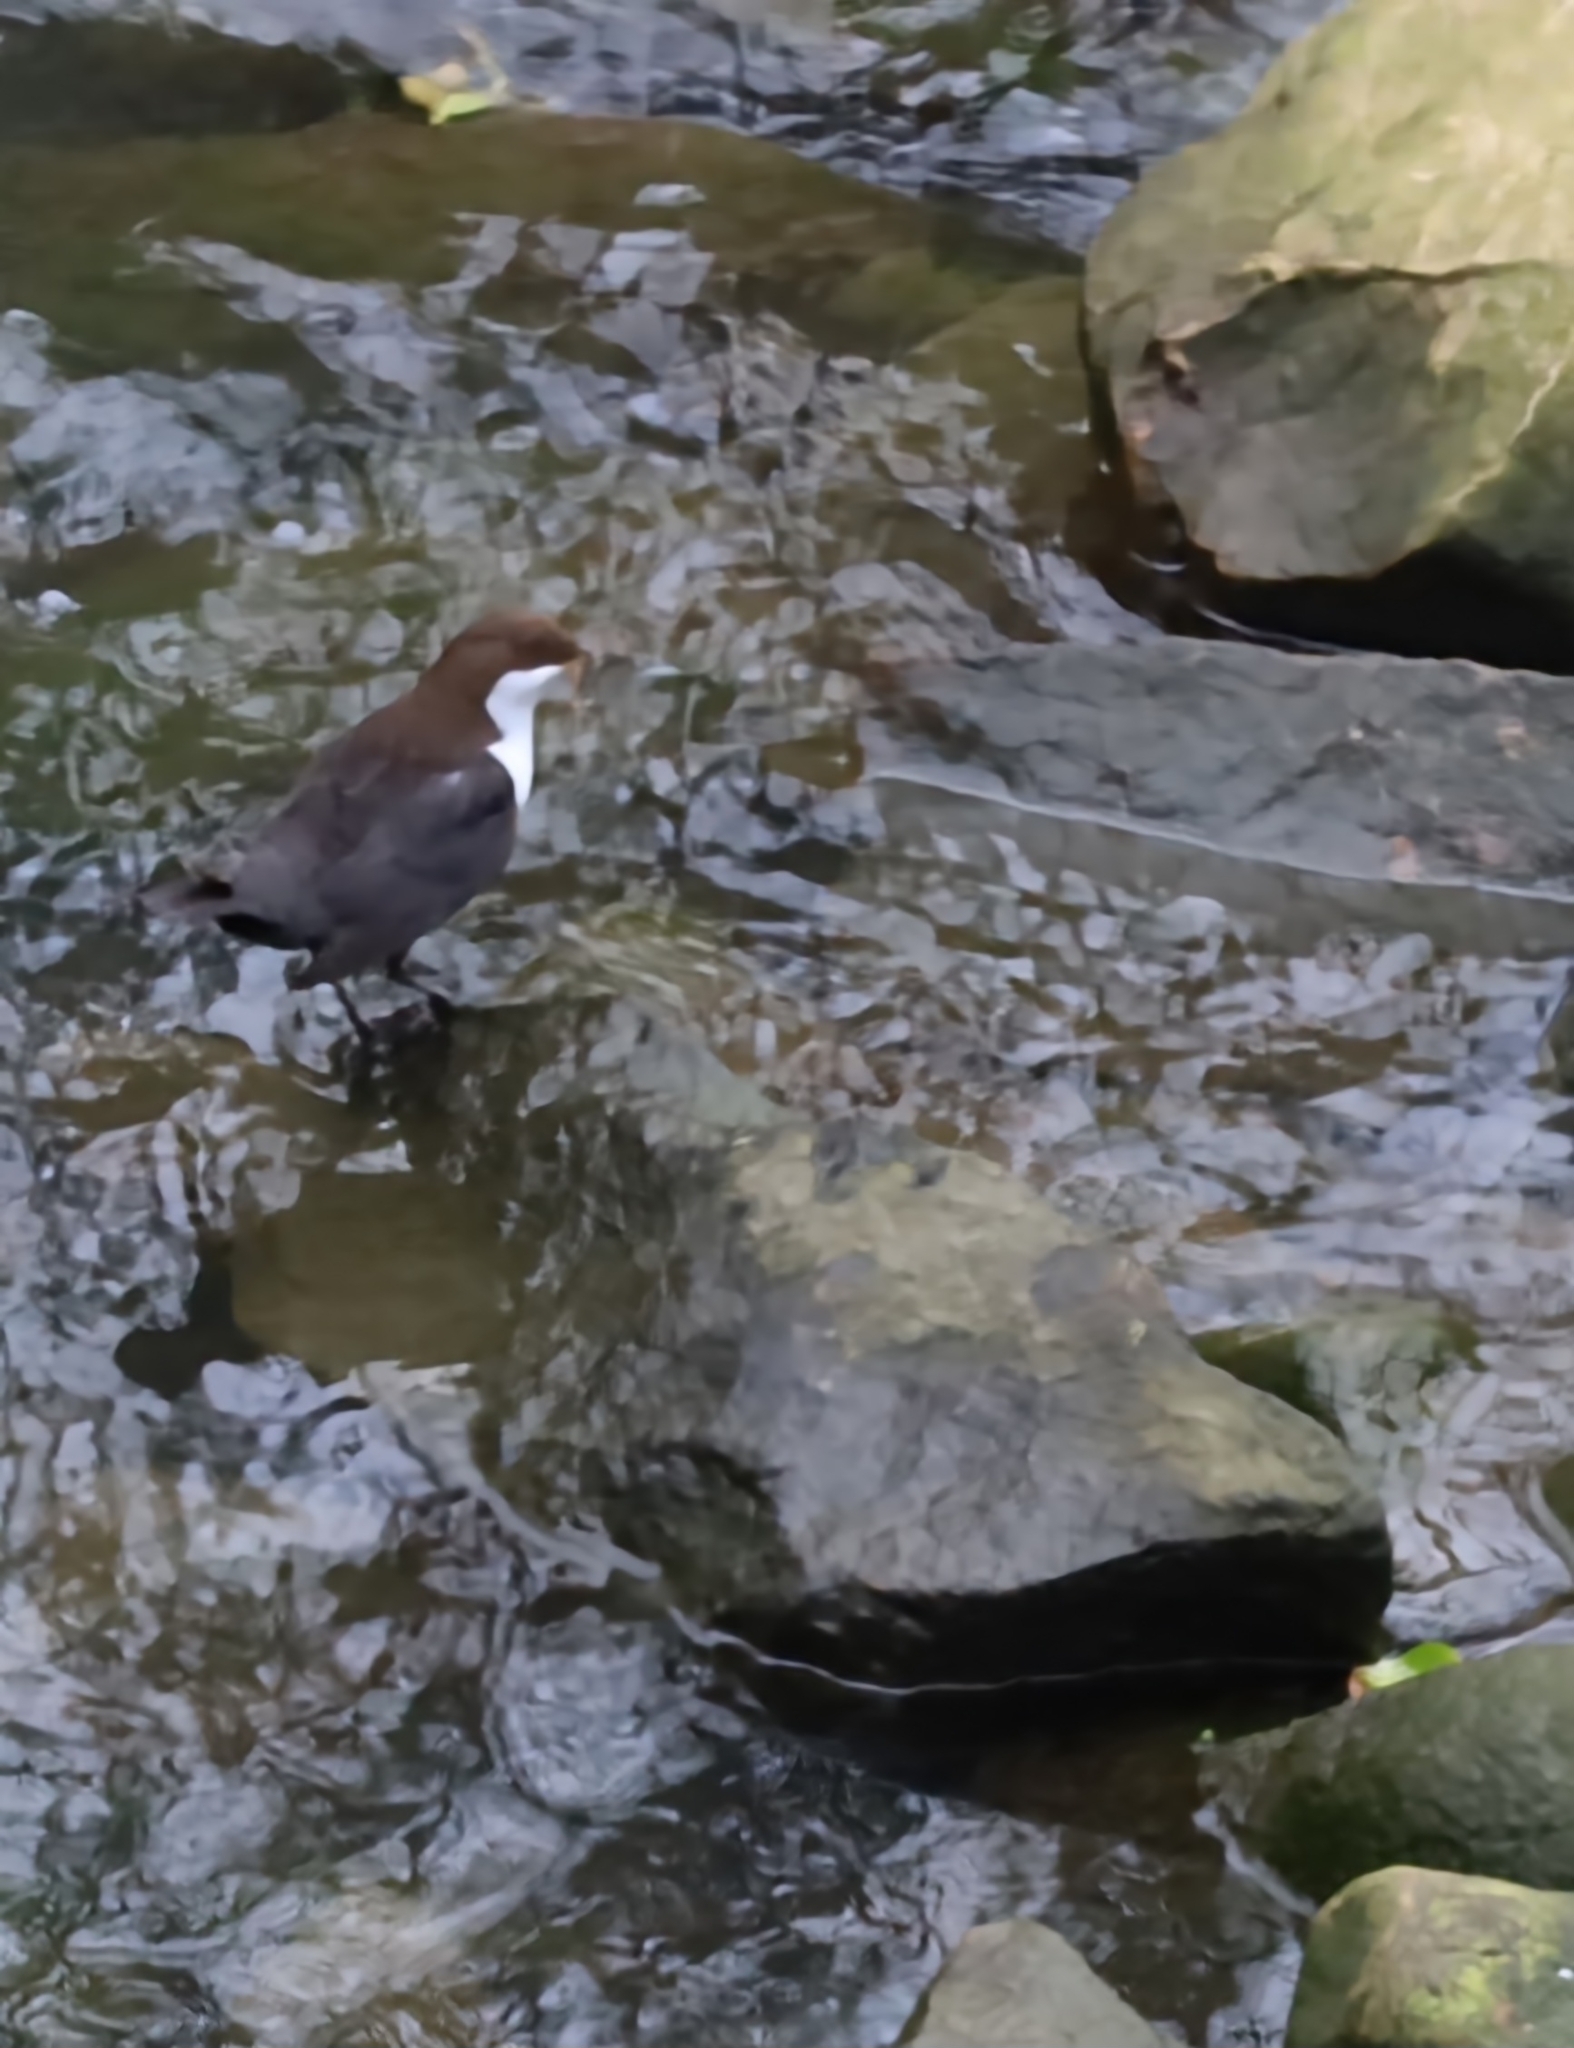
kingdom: Animalia
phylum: Chordata
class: Aves
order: Passeriformes
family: Cinclidae
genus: Cinclus
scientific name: Cinclus cinclus
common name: White-throated dipper
